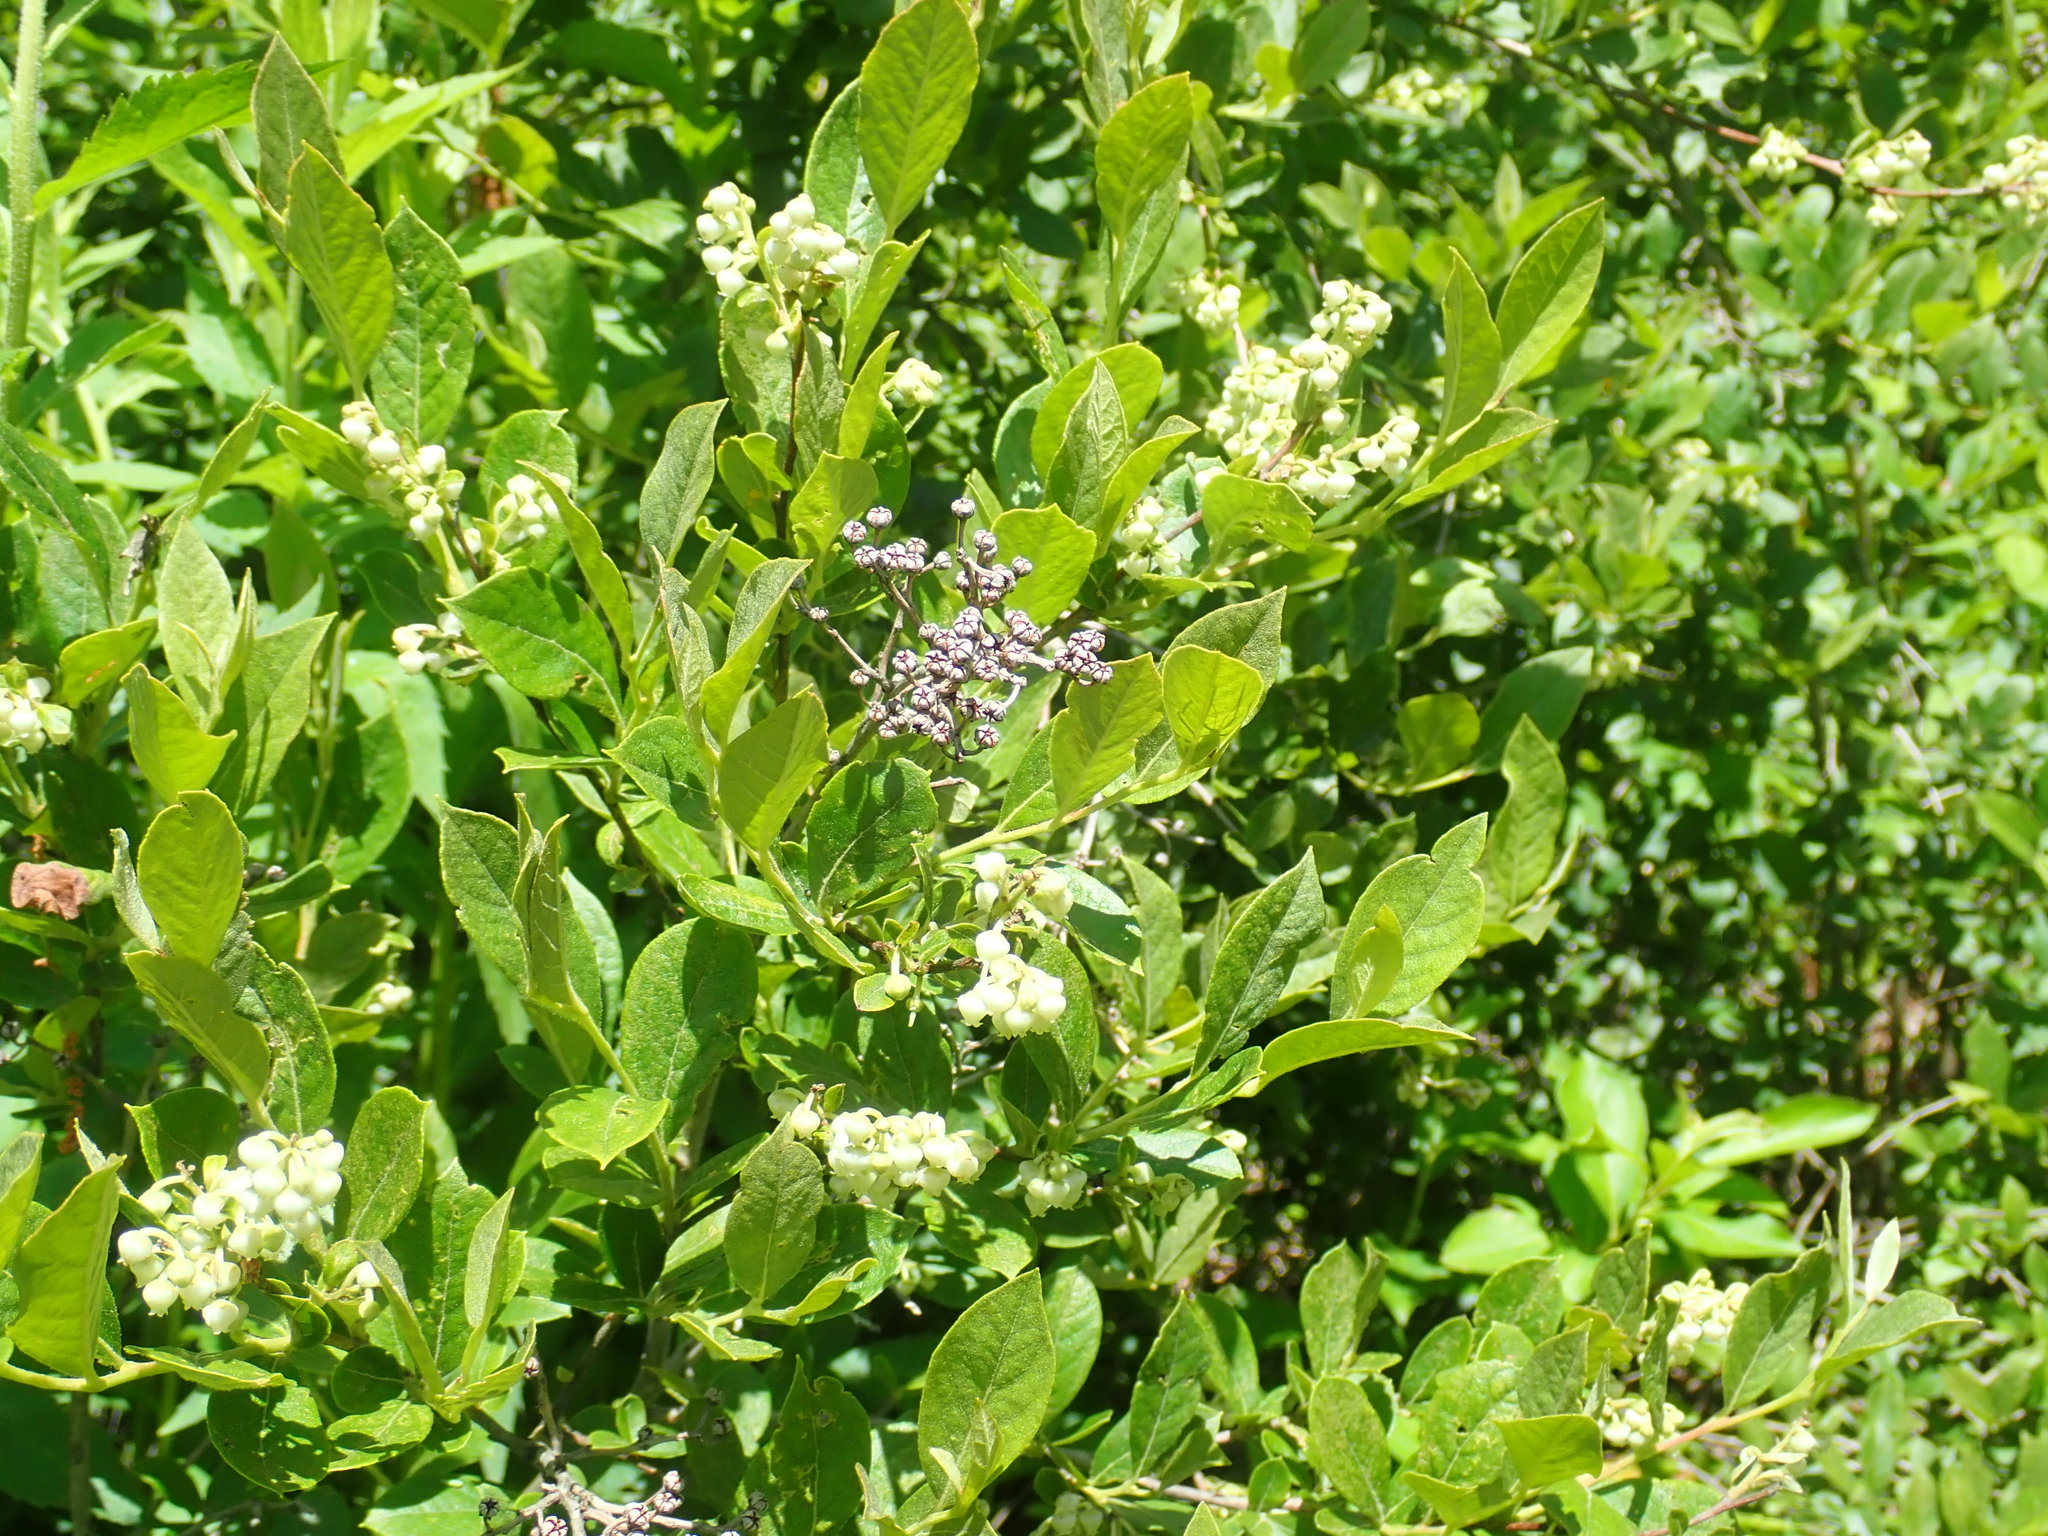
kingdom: Plantae
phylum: Tracheophyta
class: Magnoliopsida
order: Ericales
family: Ericaceae
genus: Lyonia
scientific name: Lyonia ligustrina
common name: Maleberry
